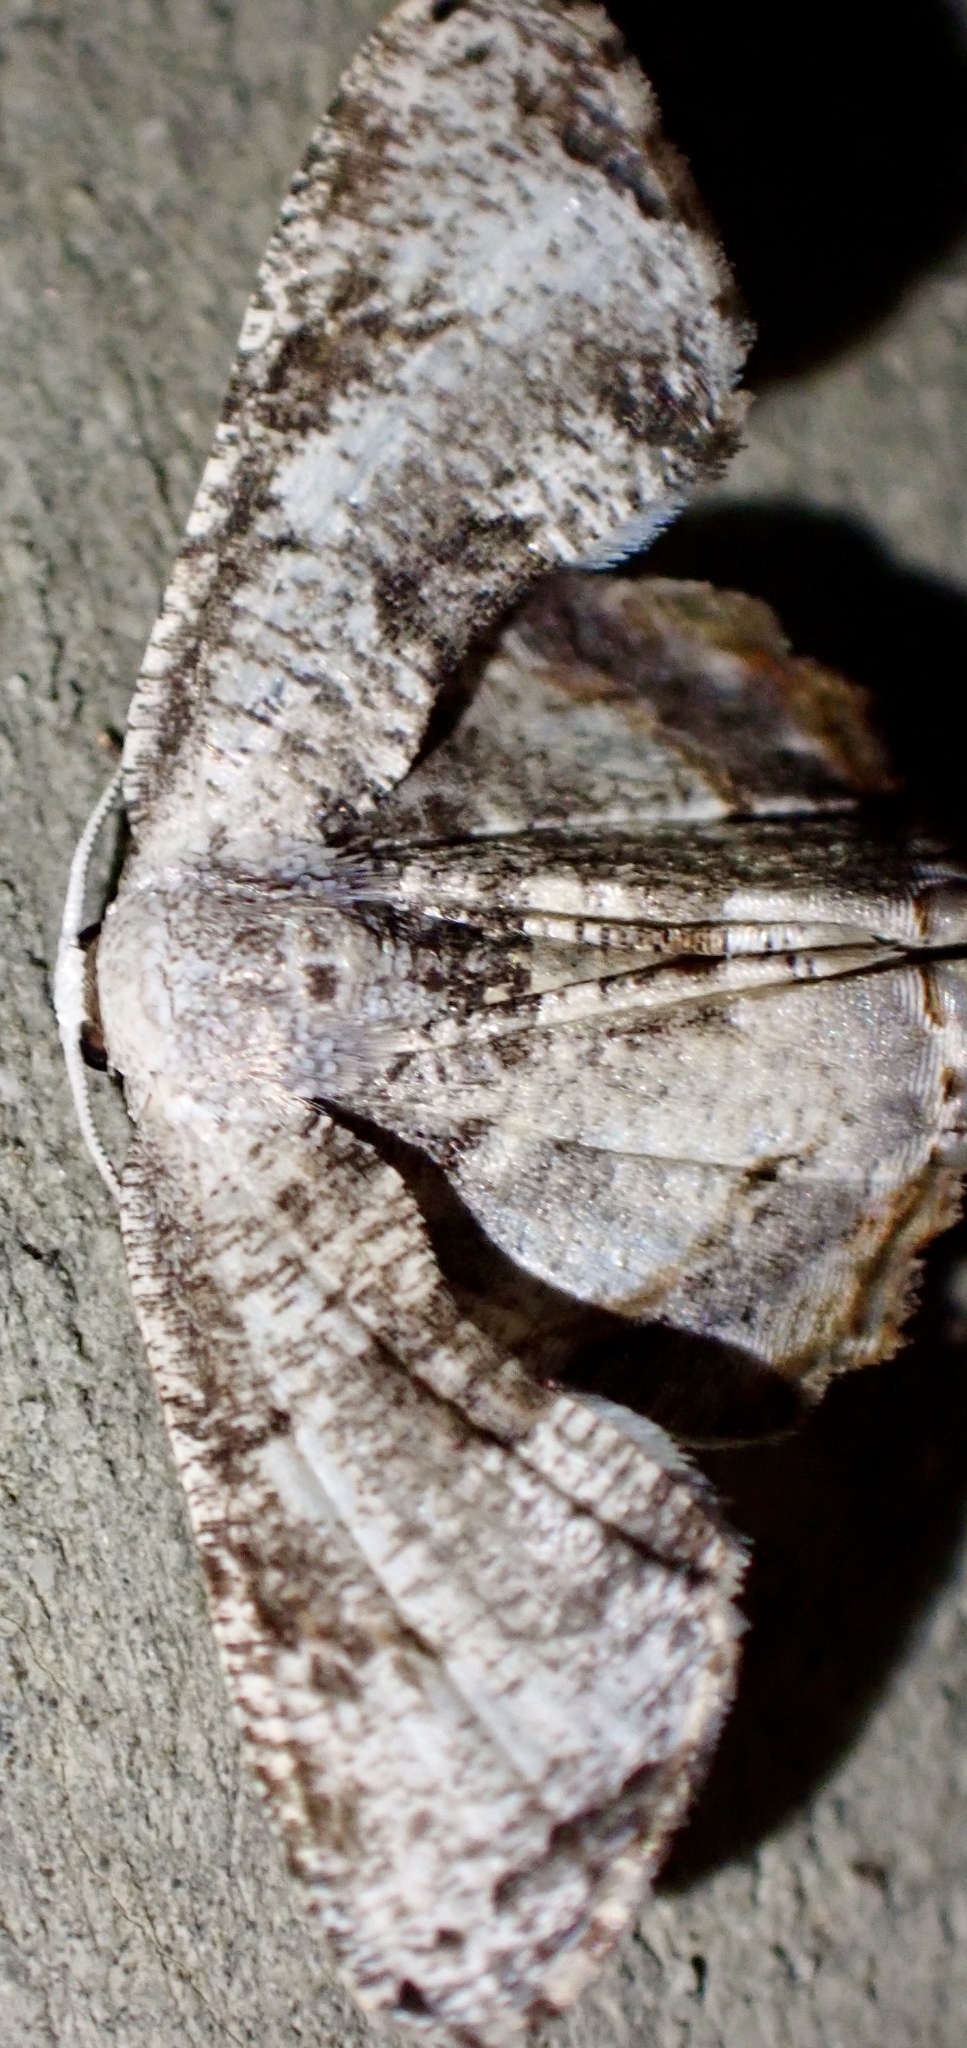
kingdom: Animalia
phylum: Arthropoda
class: Insecta
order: Lepidoptera
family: Uraniidae
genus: Platerosia
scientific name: Platerosia rotundipennis
